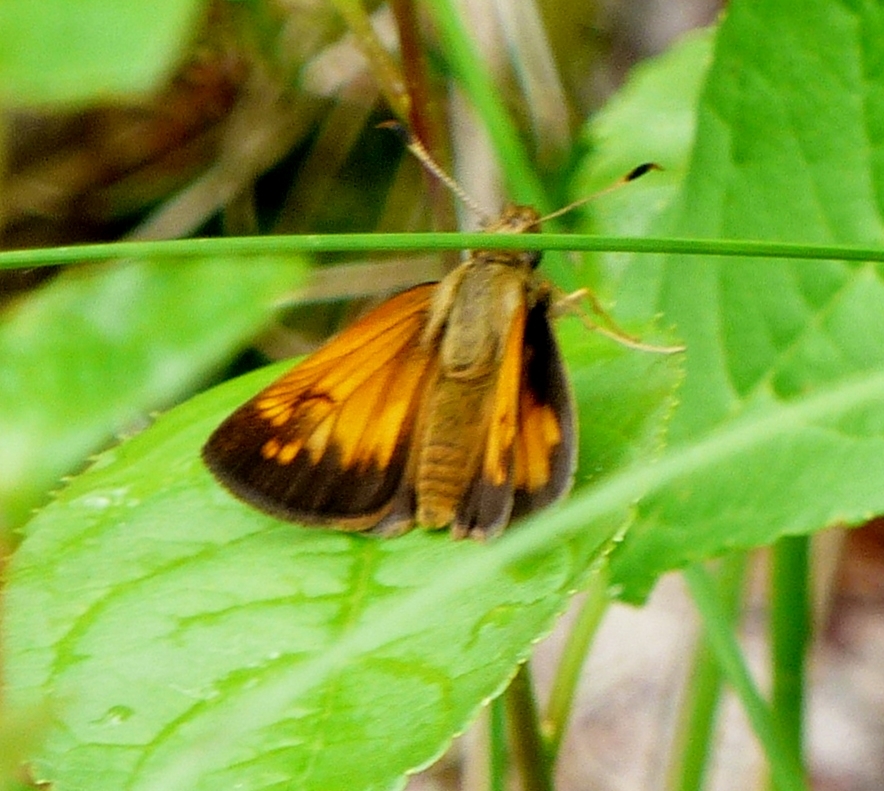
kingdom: Animalia
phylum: Arthropoda
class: Insecta
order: Lepidoptera
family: Hesperiidae
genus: Lon
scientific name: Lon hobomok
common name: Hobomok skipper
